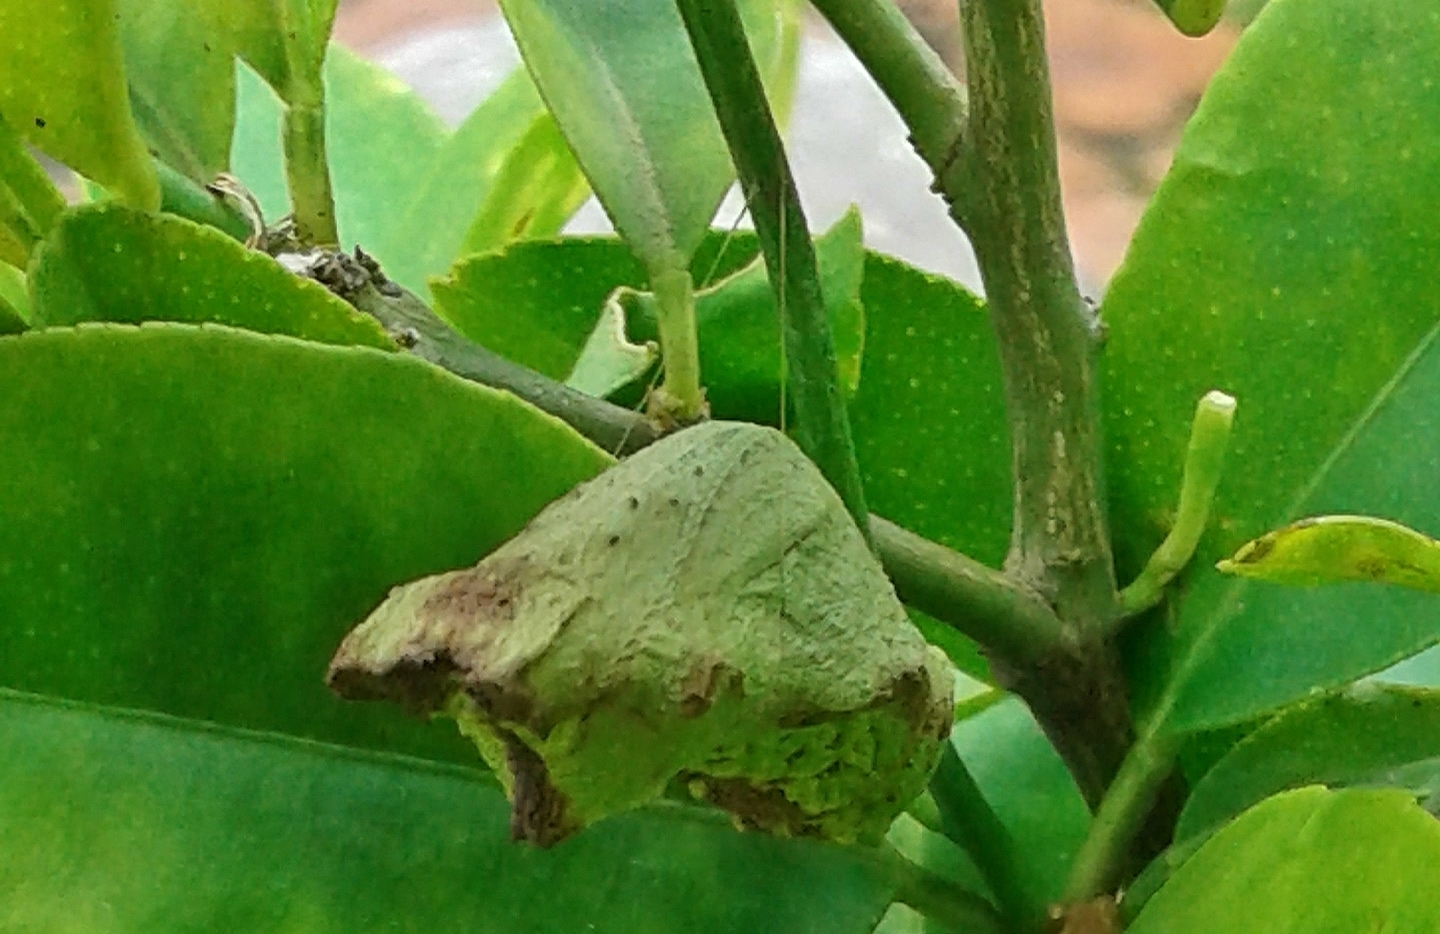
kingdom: Animalia
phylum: Arthropoda
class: Insecta
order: Lepidoptera
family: Papilionidae
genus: Papilio
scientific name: Papilio demodocus
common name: Christmas butterfly
